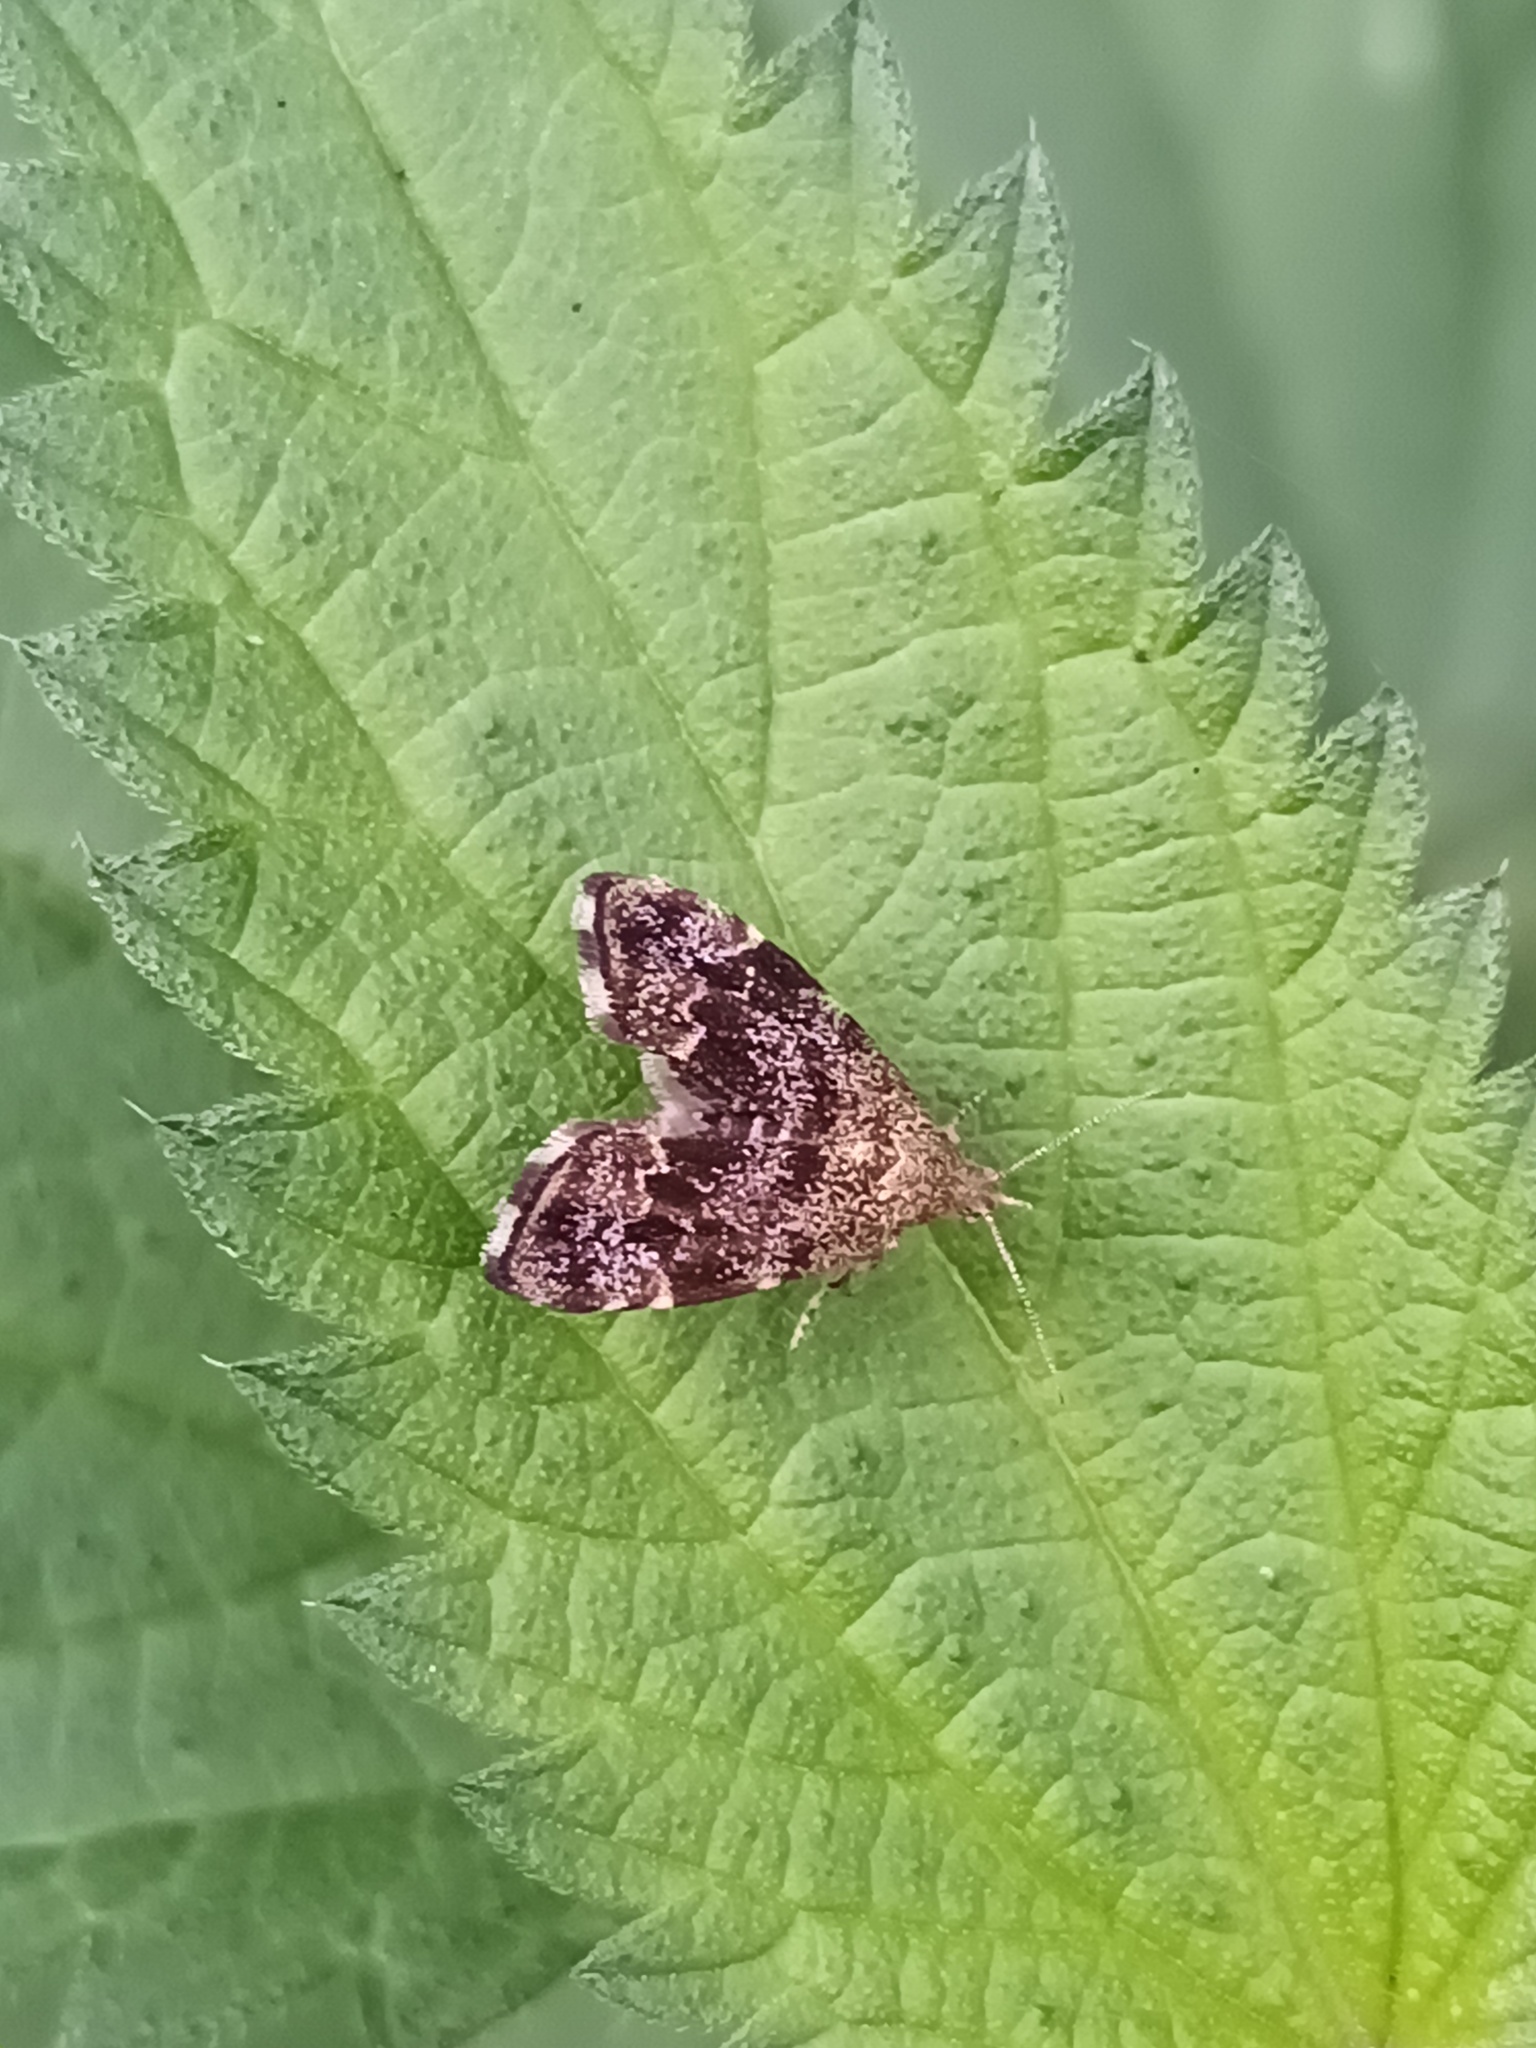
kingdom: Animalia
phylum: Arthropoda
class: Insecta
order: Lepidoptera
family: Choreutidae
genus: Anthophila
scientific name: Anthophila fabriciana
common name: Nettle-tap
